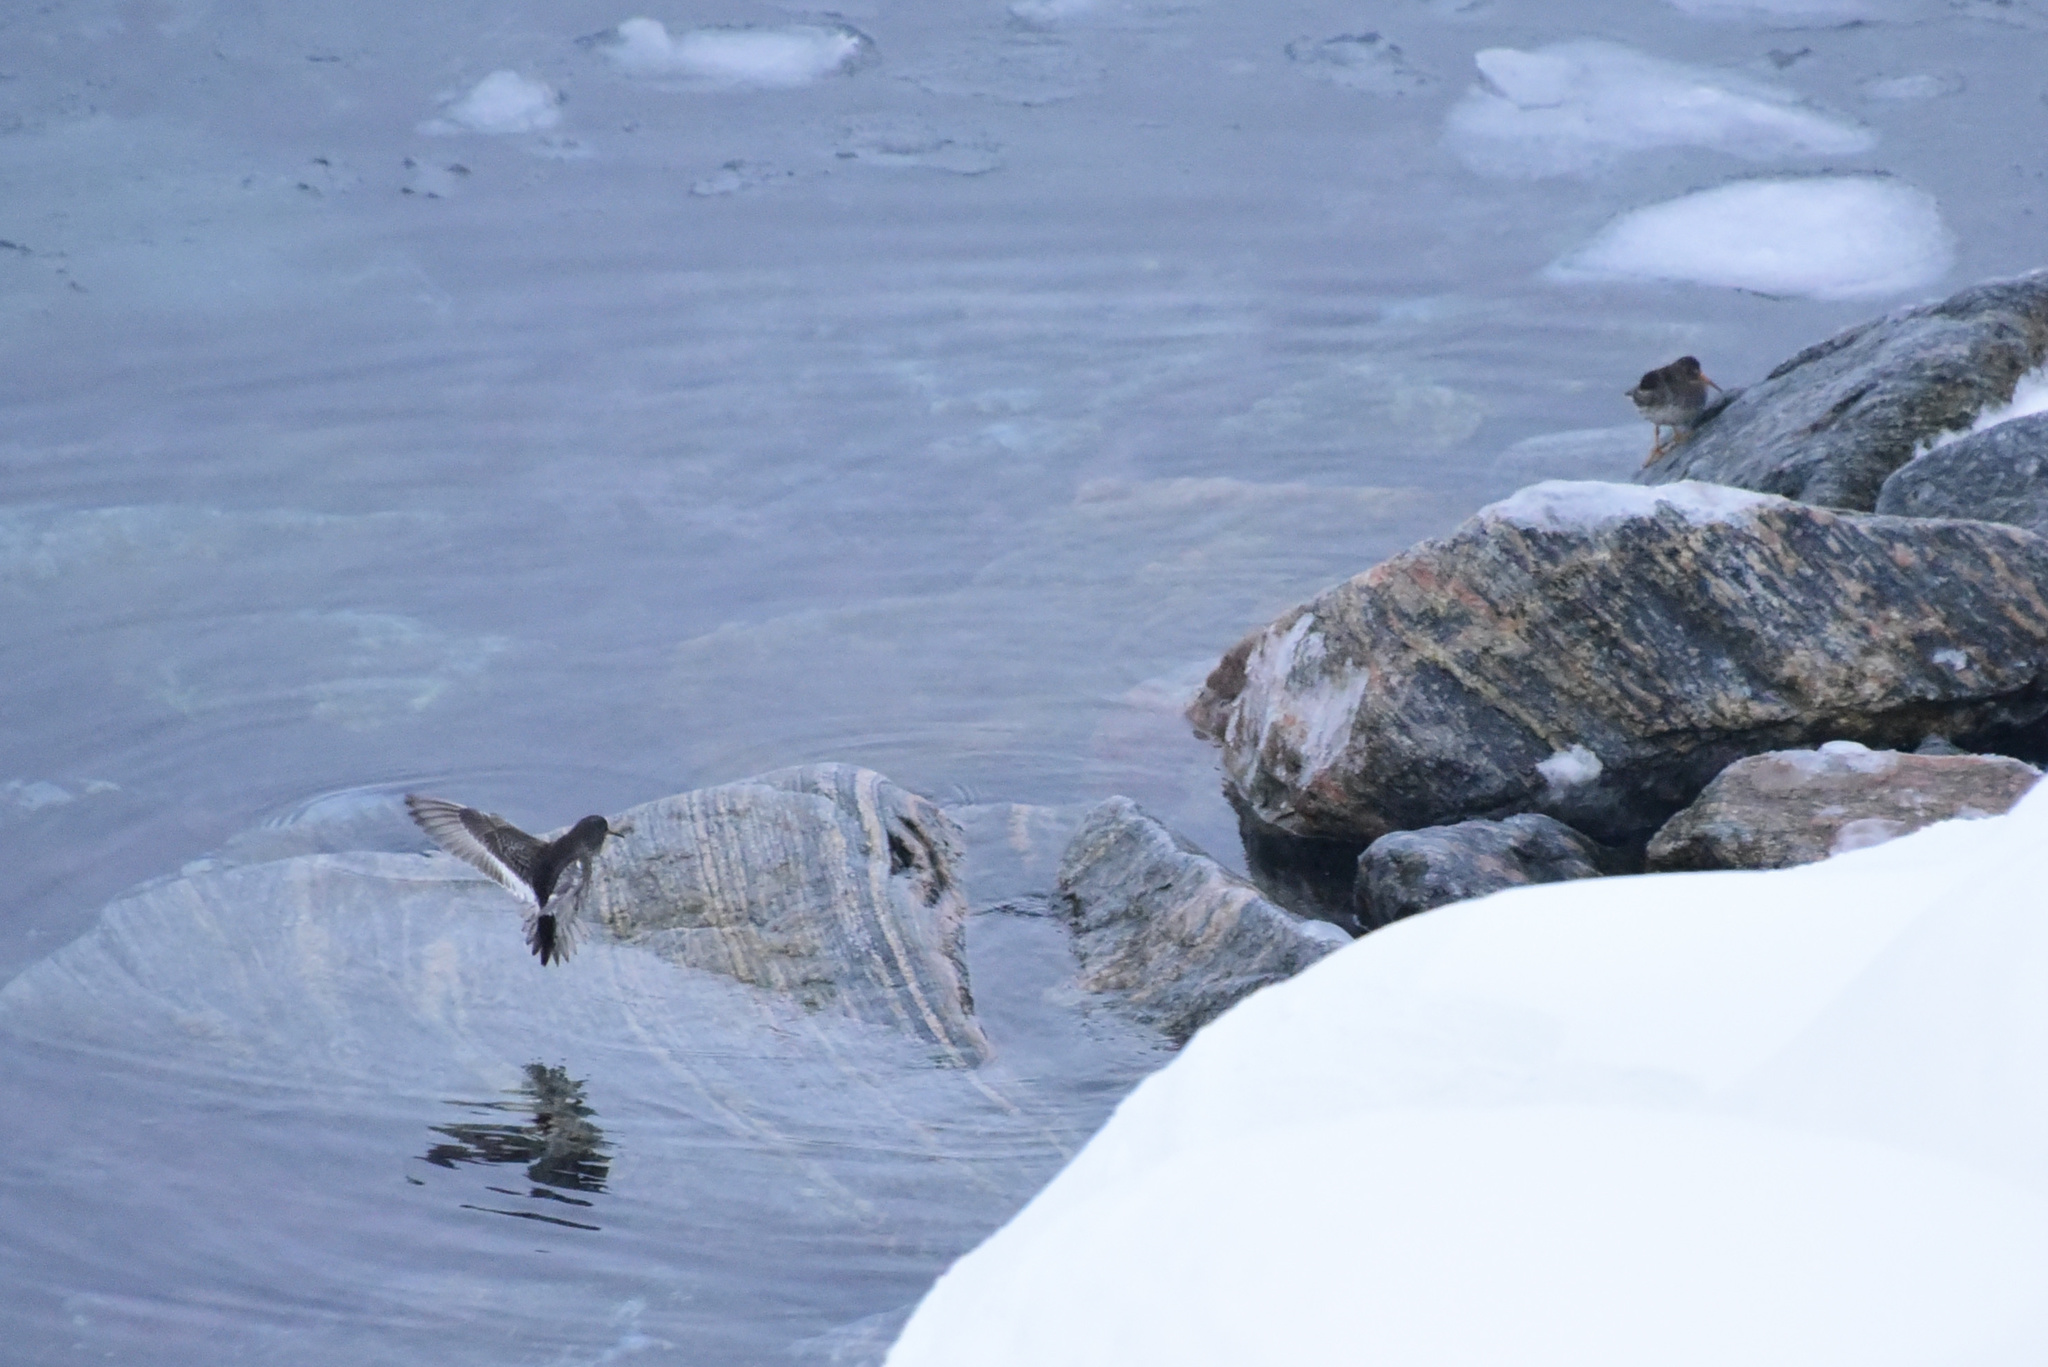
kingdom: Animalia
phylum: Chordata
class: Aves
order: Charadriiformes
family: Scolopacidae
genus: Calidris
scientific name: Calidris maritima
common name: Purple sandpiper
